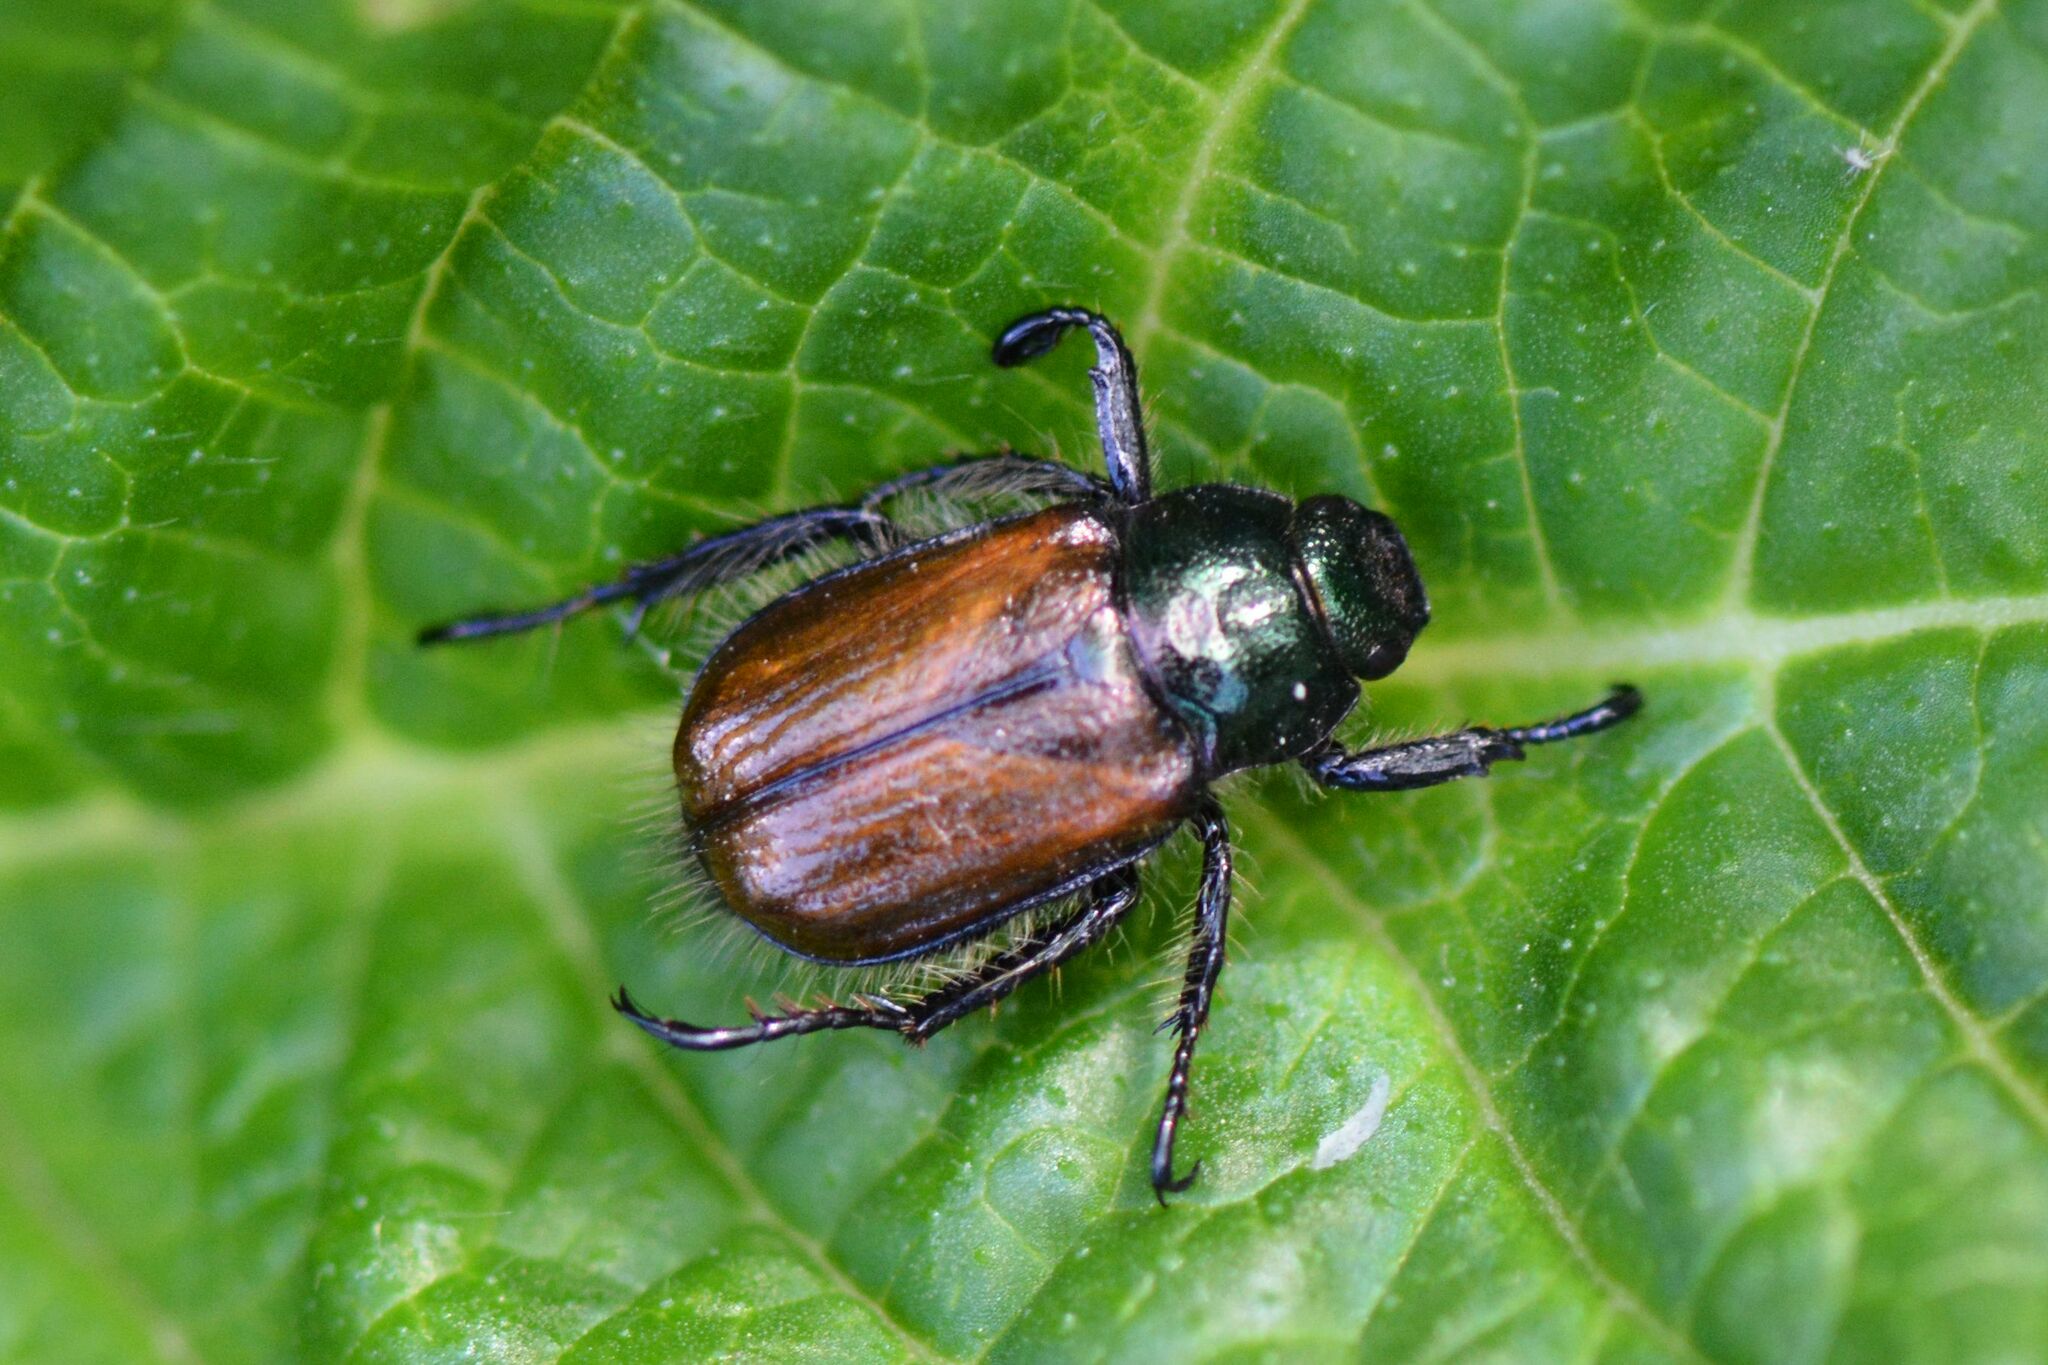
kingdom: Animalia
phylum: Arthropoda
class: Insecta
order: Coleoptera
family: Scarabaeidae
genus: Phyllopertha
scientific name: Phyllopertha horticola
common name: Garden chafer
